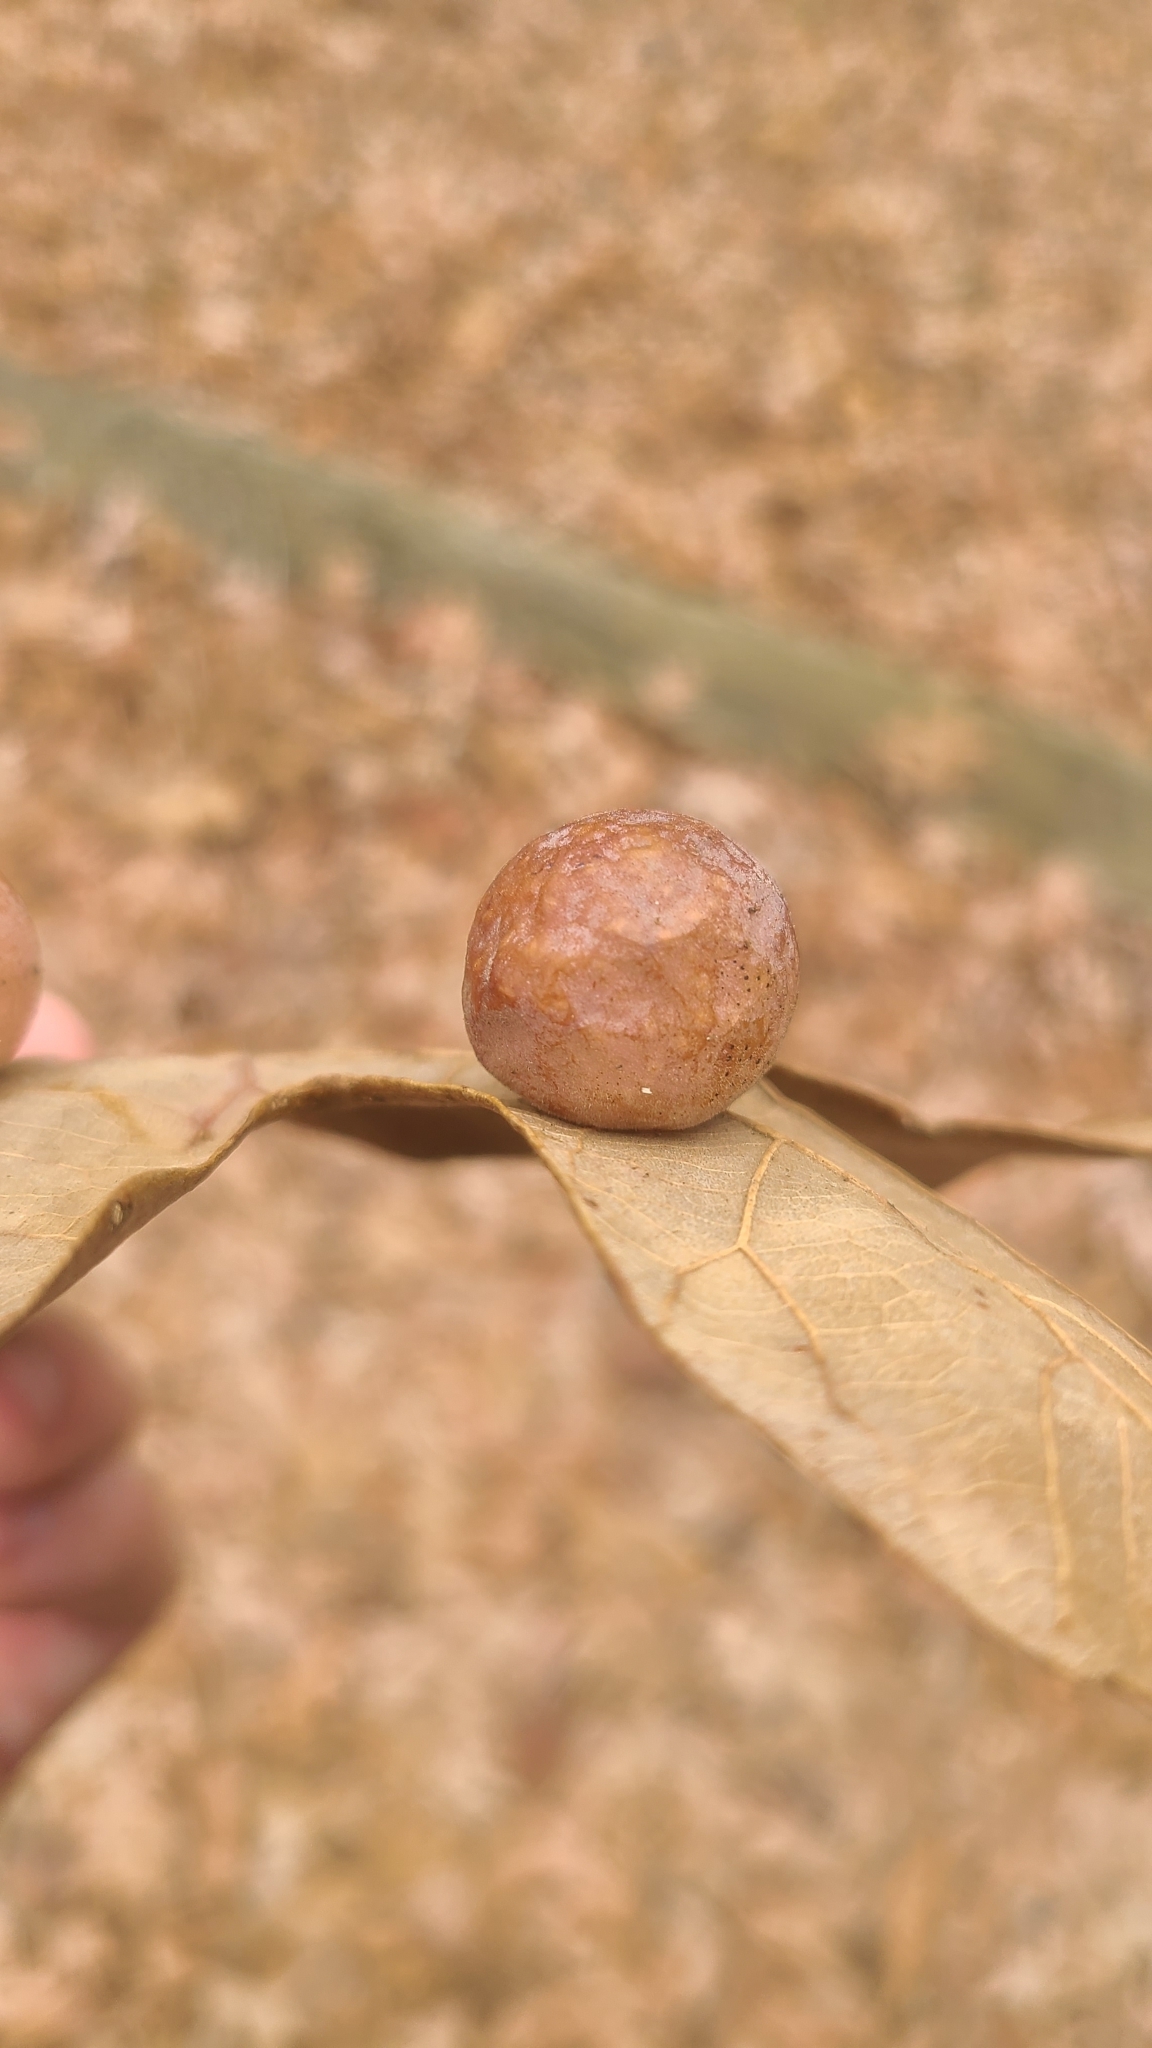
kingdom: Animalia
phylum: Arthropoda
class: Insecta
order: Hymenoptera
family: Cynipidae
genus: Atrusca
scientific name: Atrusca
